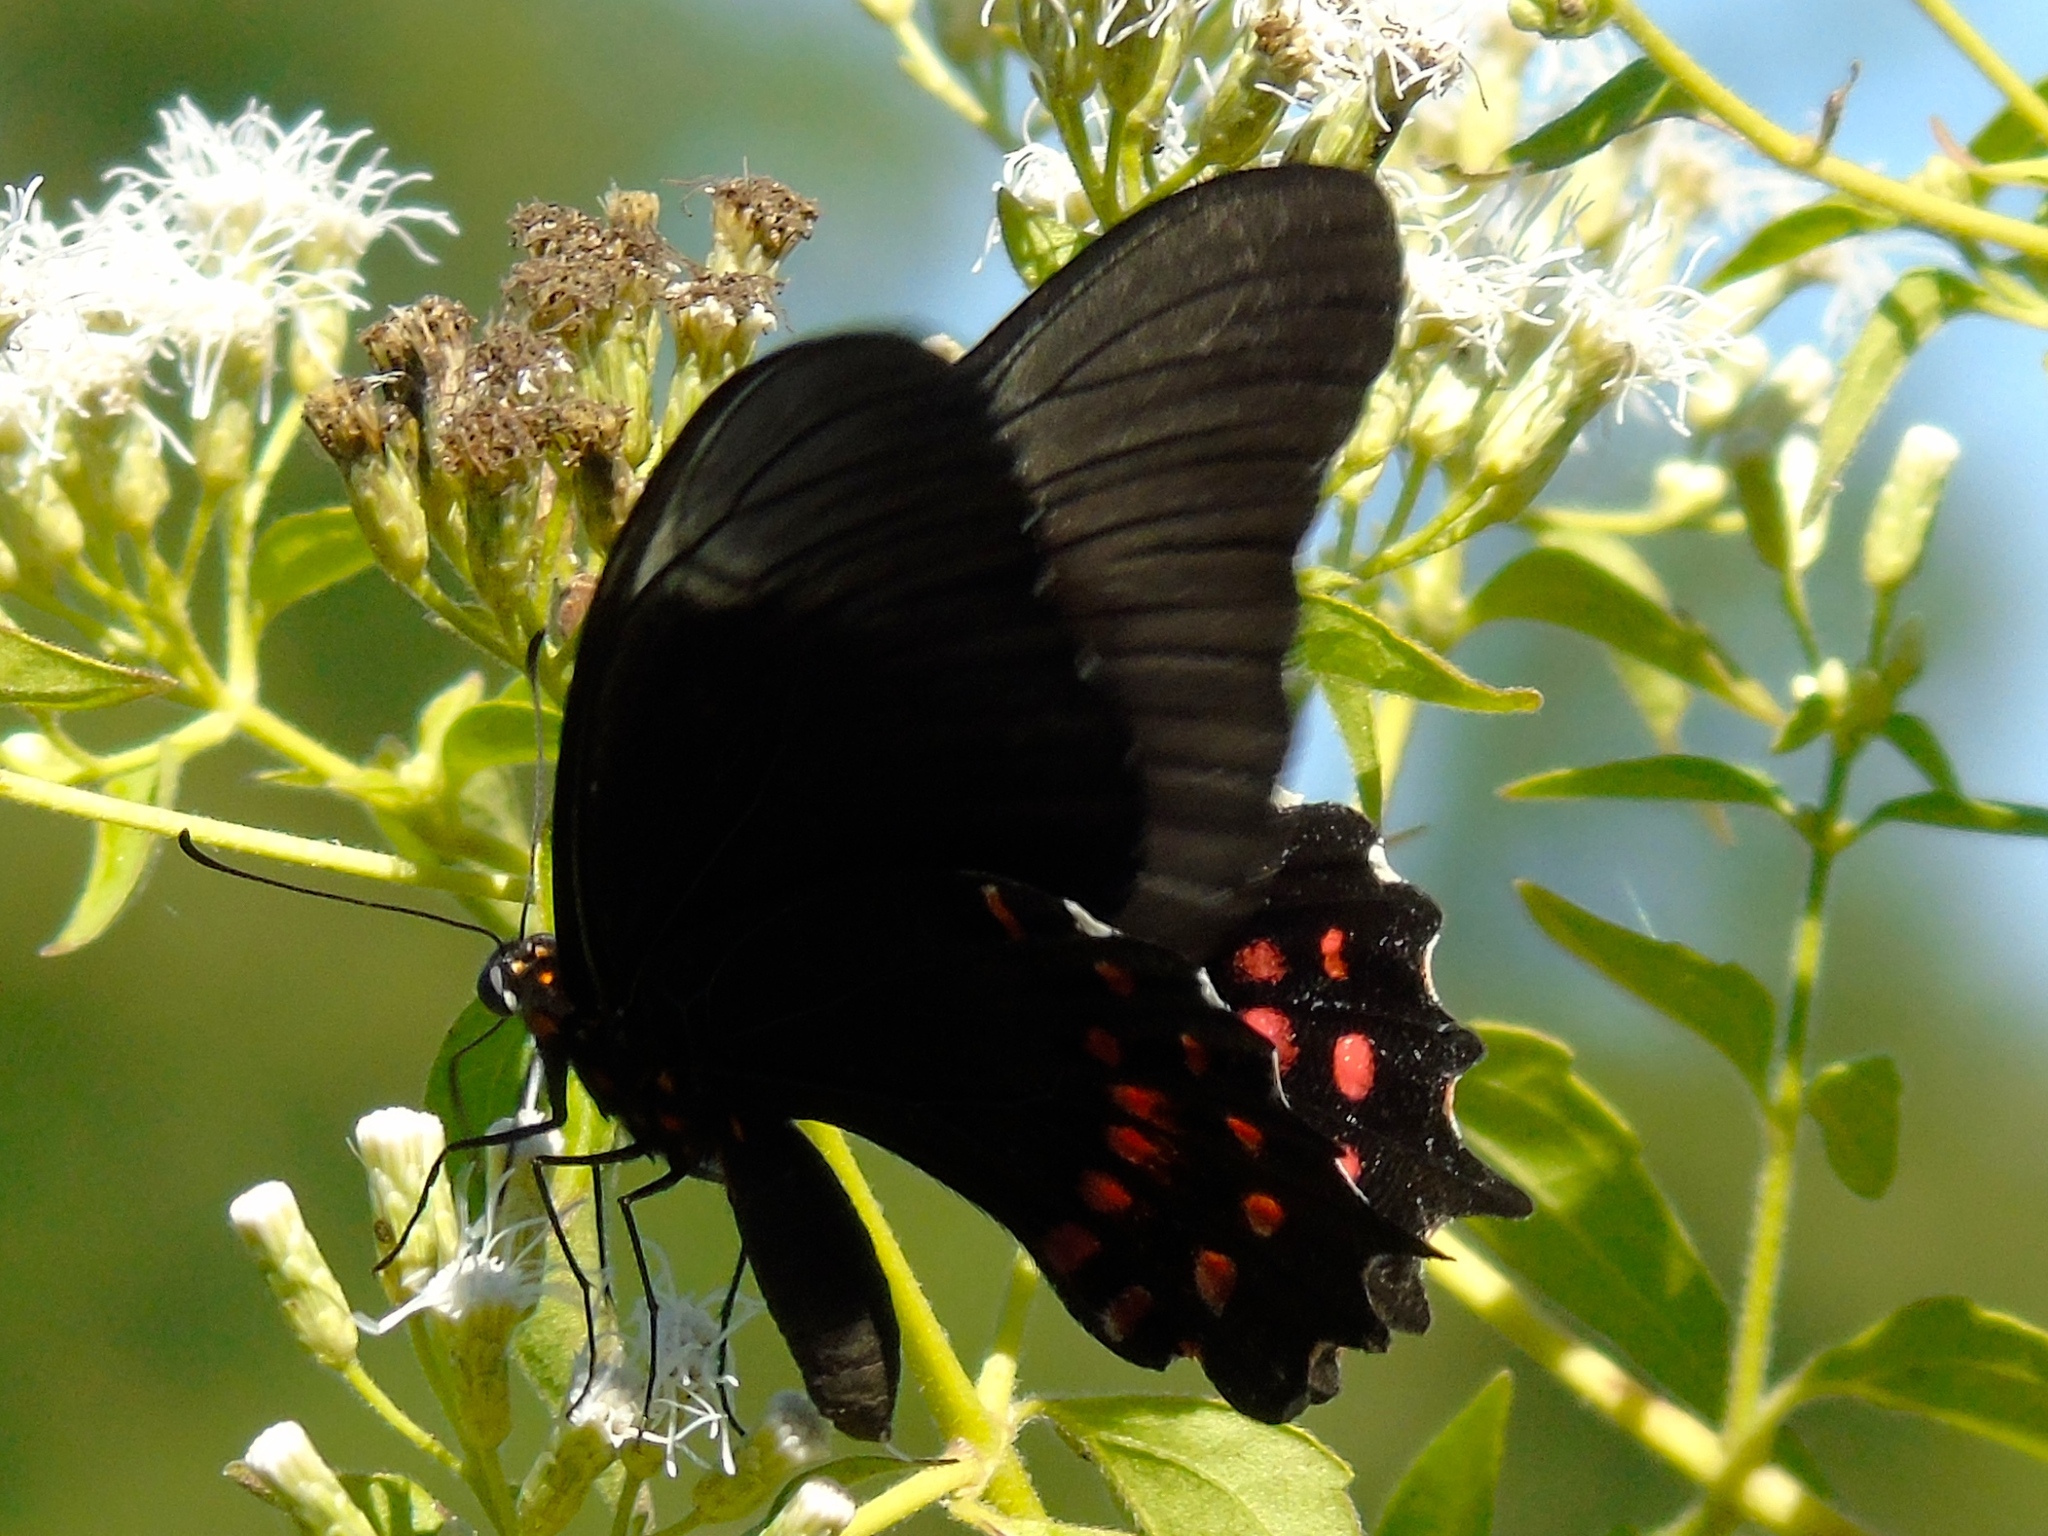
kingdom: Animalia
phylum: Arthropoda
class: Insecta
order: Lepidoptera
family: Papilionidae
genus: Heraclides
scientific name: Heraclides rogeri
